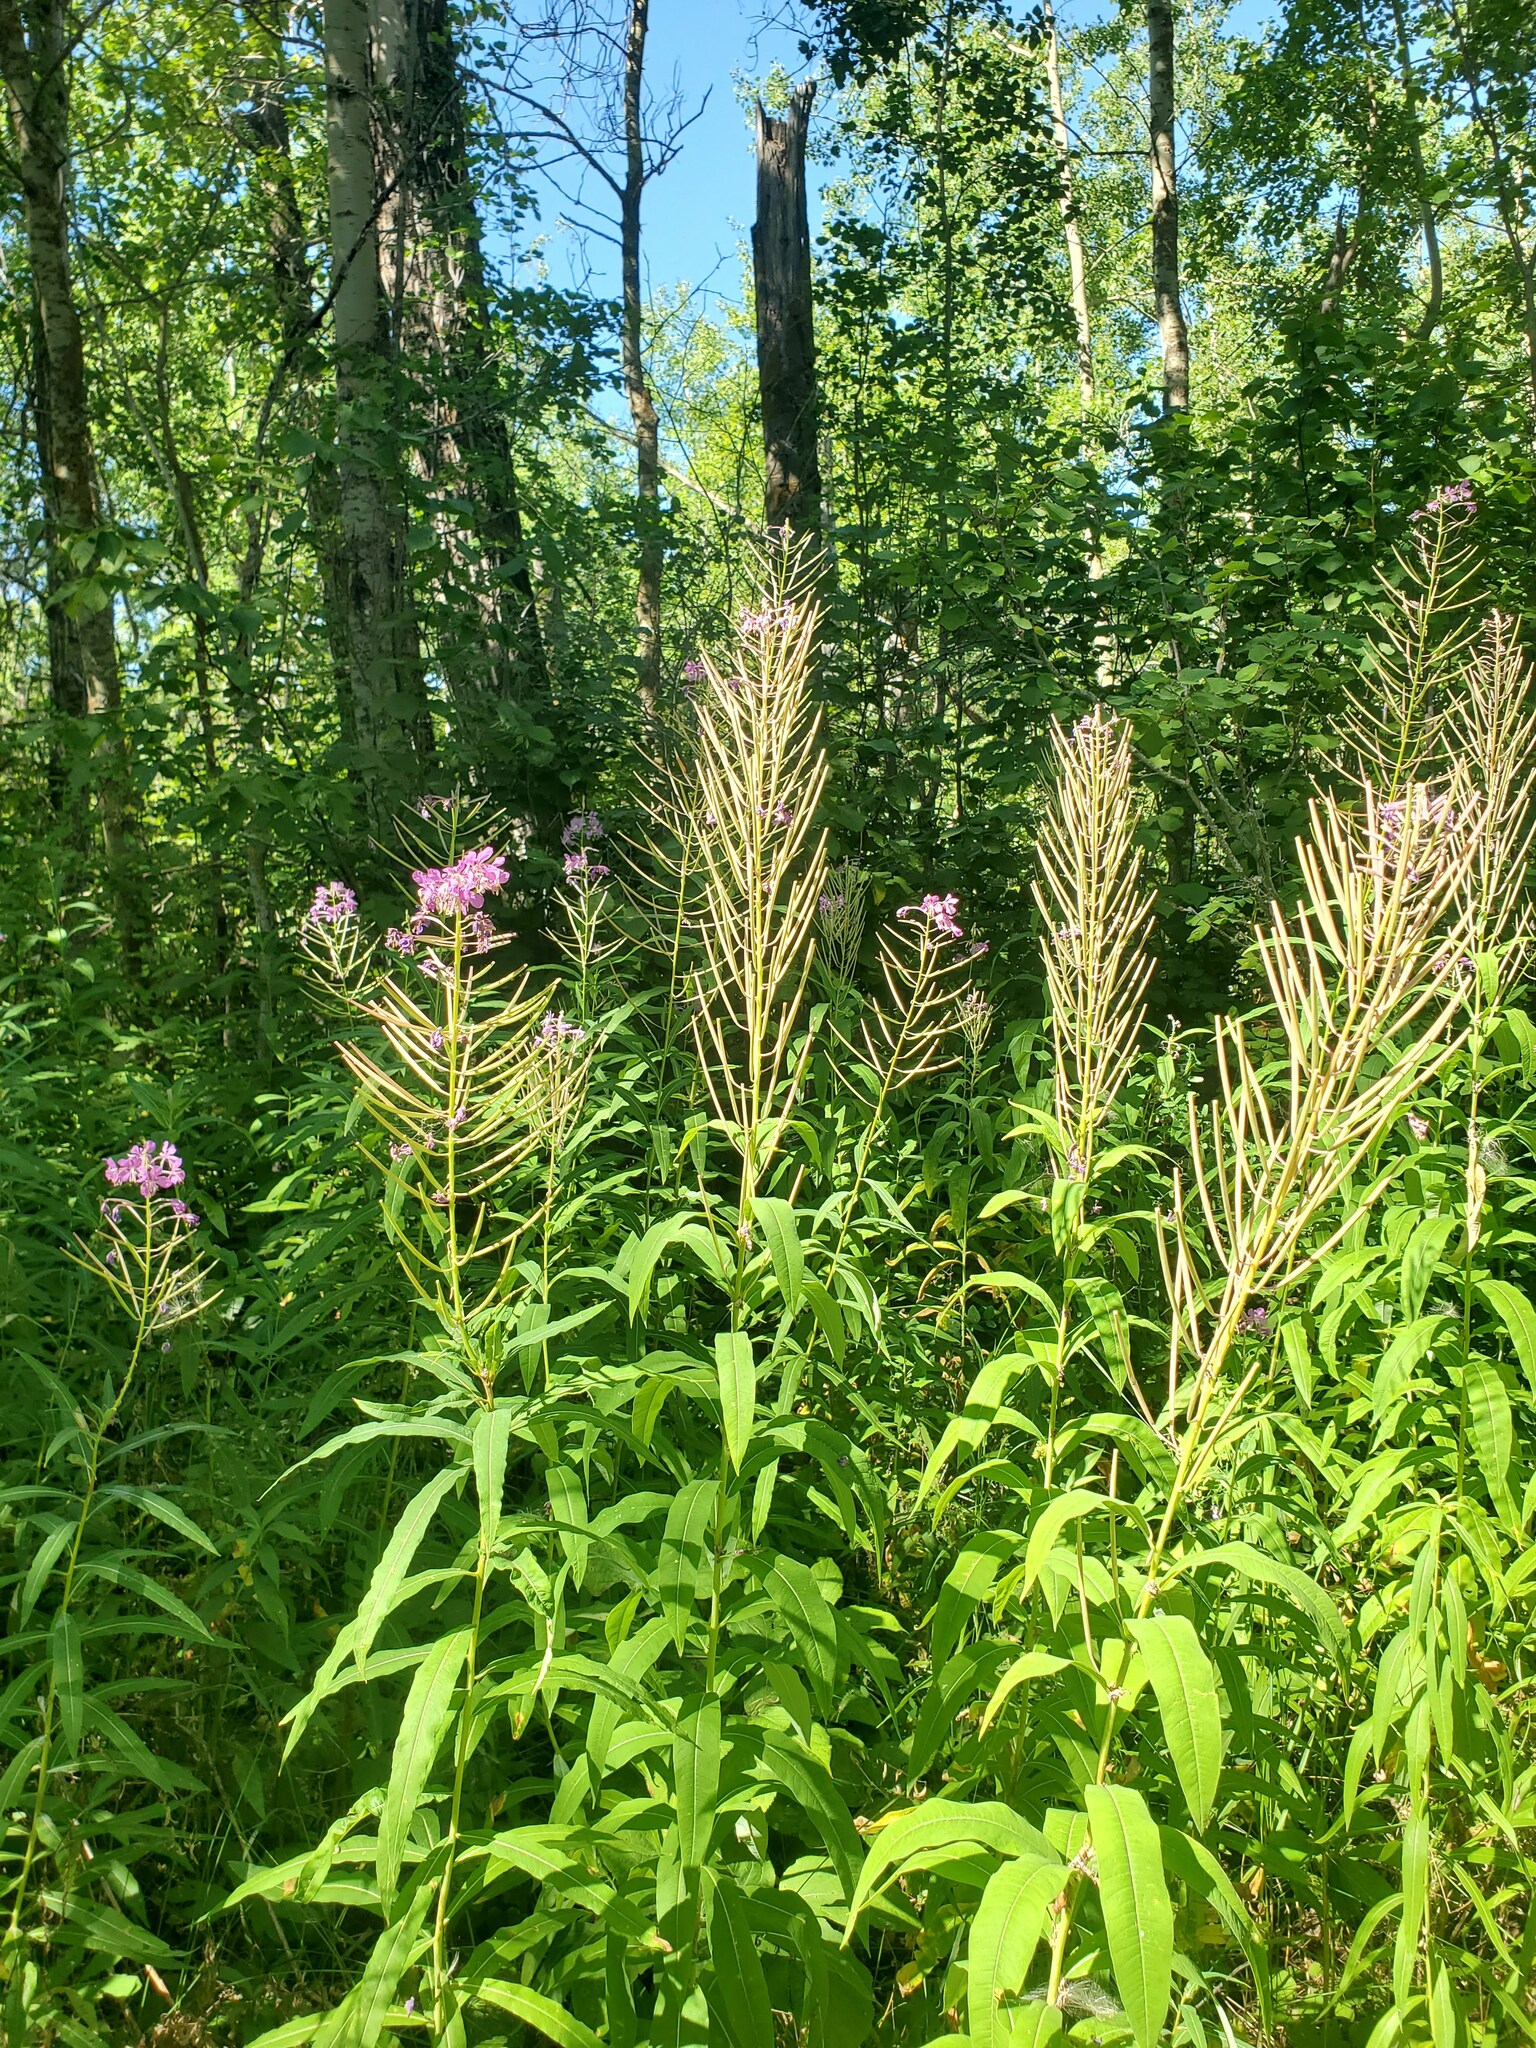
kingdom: Plantae
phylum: Tracheophyta
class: Magnoliopsida
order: Myrtales
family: Onagraceae
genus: Chamaenerion
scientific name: Chamaenerion angustifolium
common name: Fireweed
